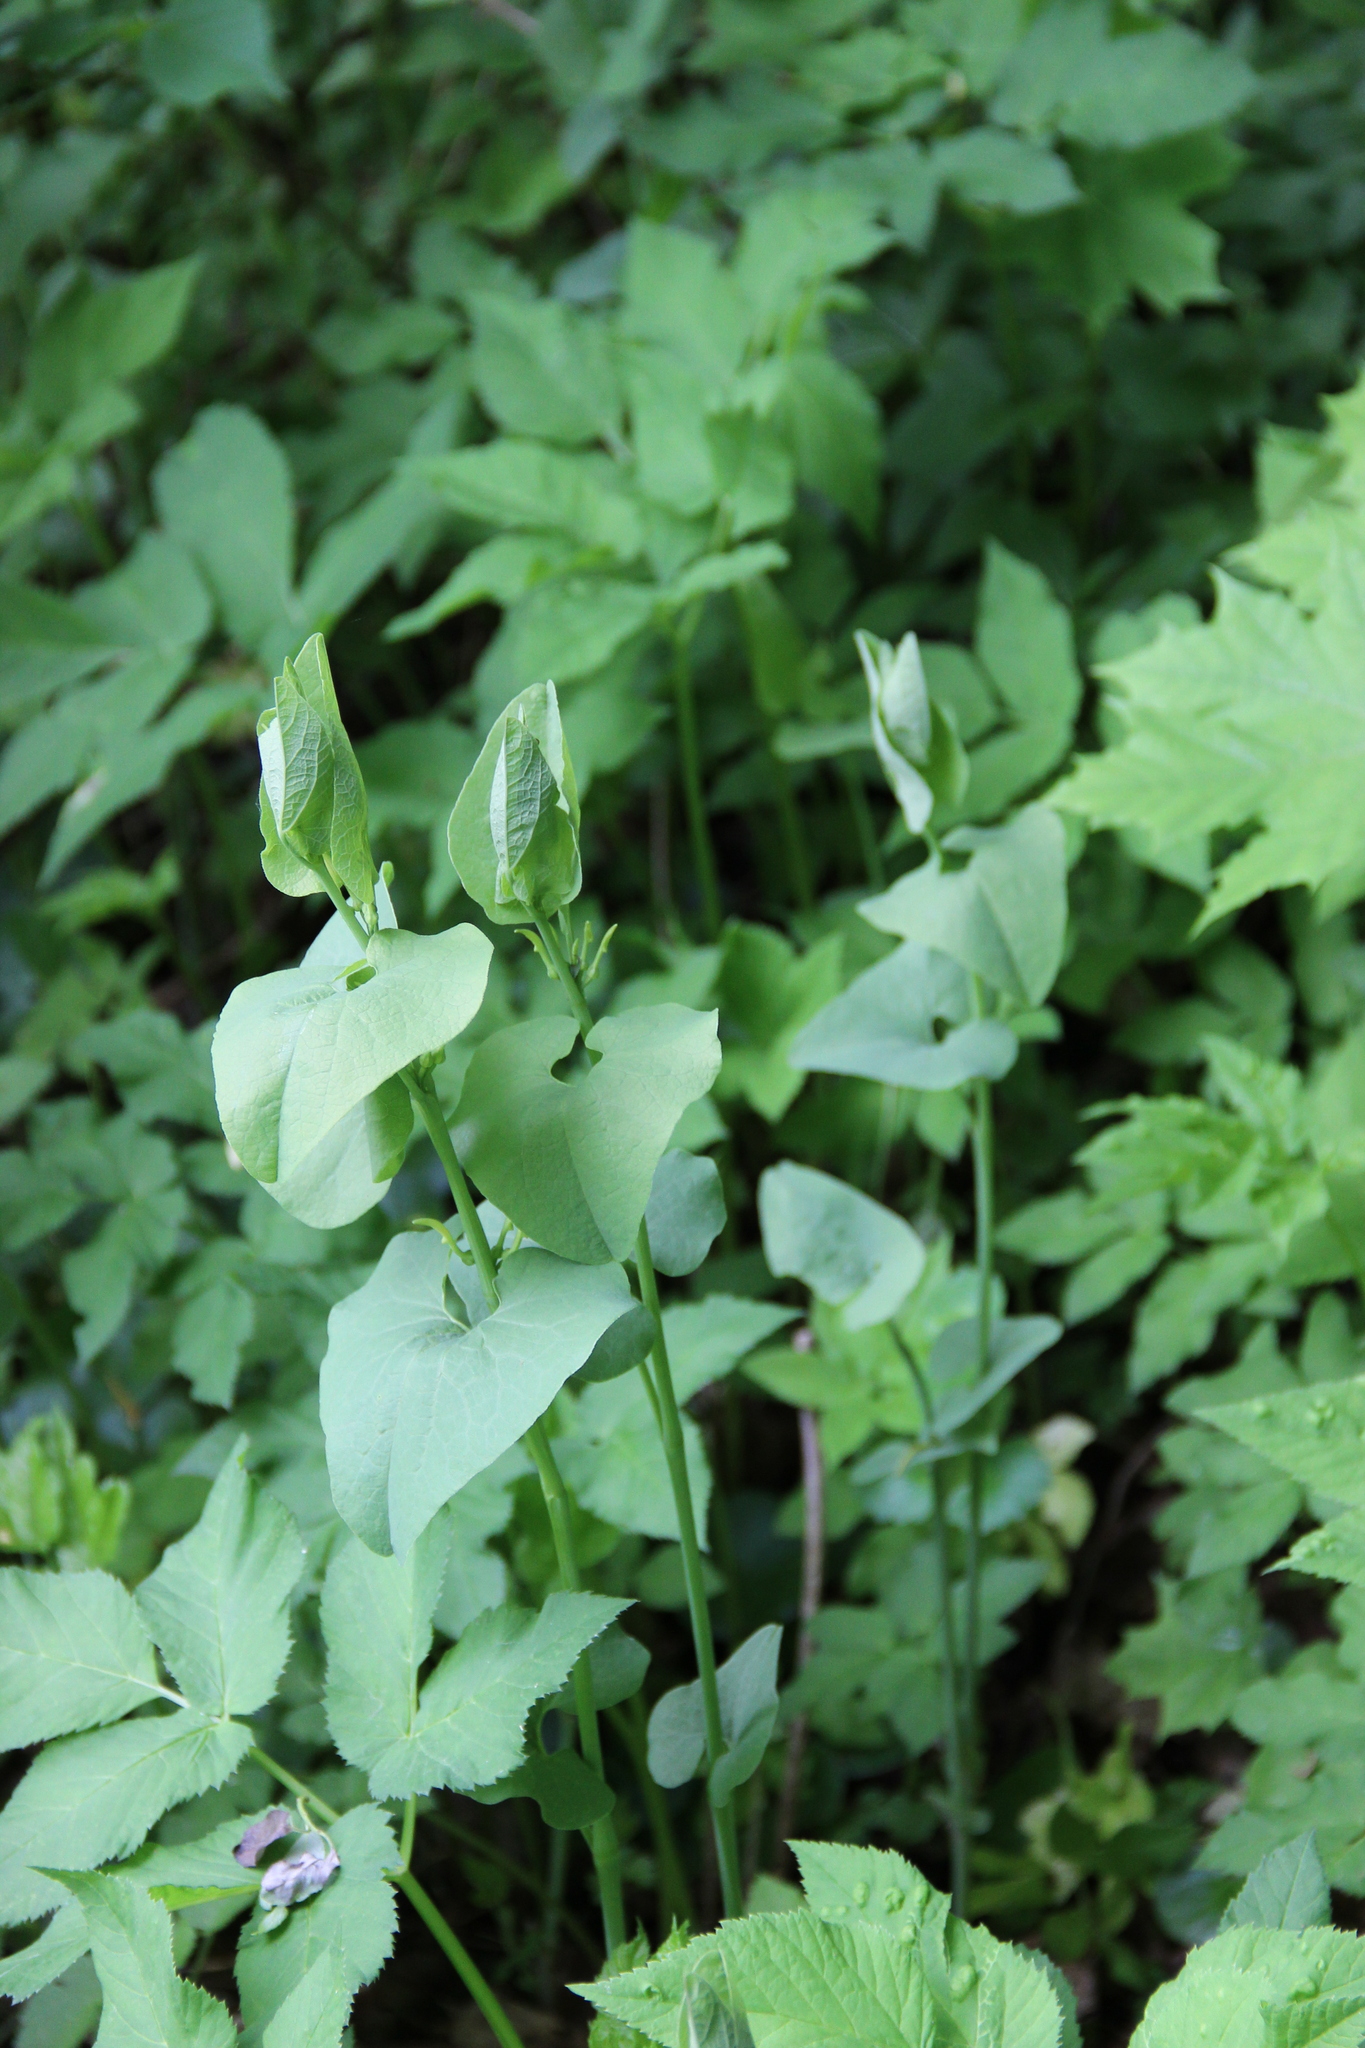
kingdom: Plantae
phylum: Tracheophyta
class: Magnoliopsida
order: Piperales
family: Aristolochiaceae
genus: Aristolochia
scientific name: Aristolochia clematitis
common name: Birthwort
